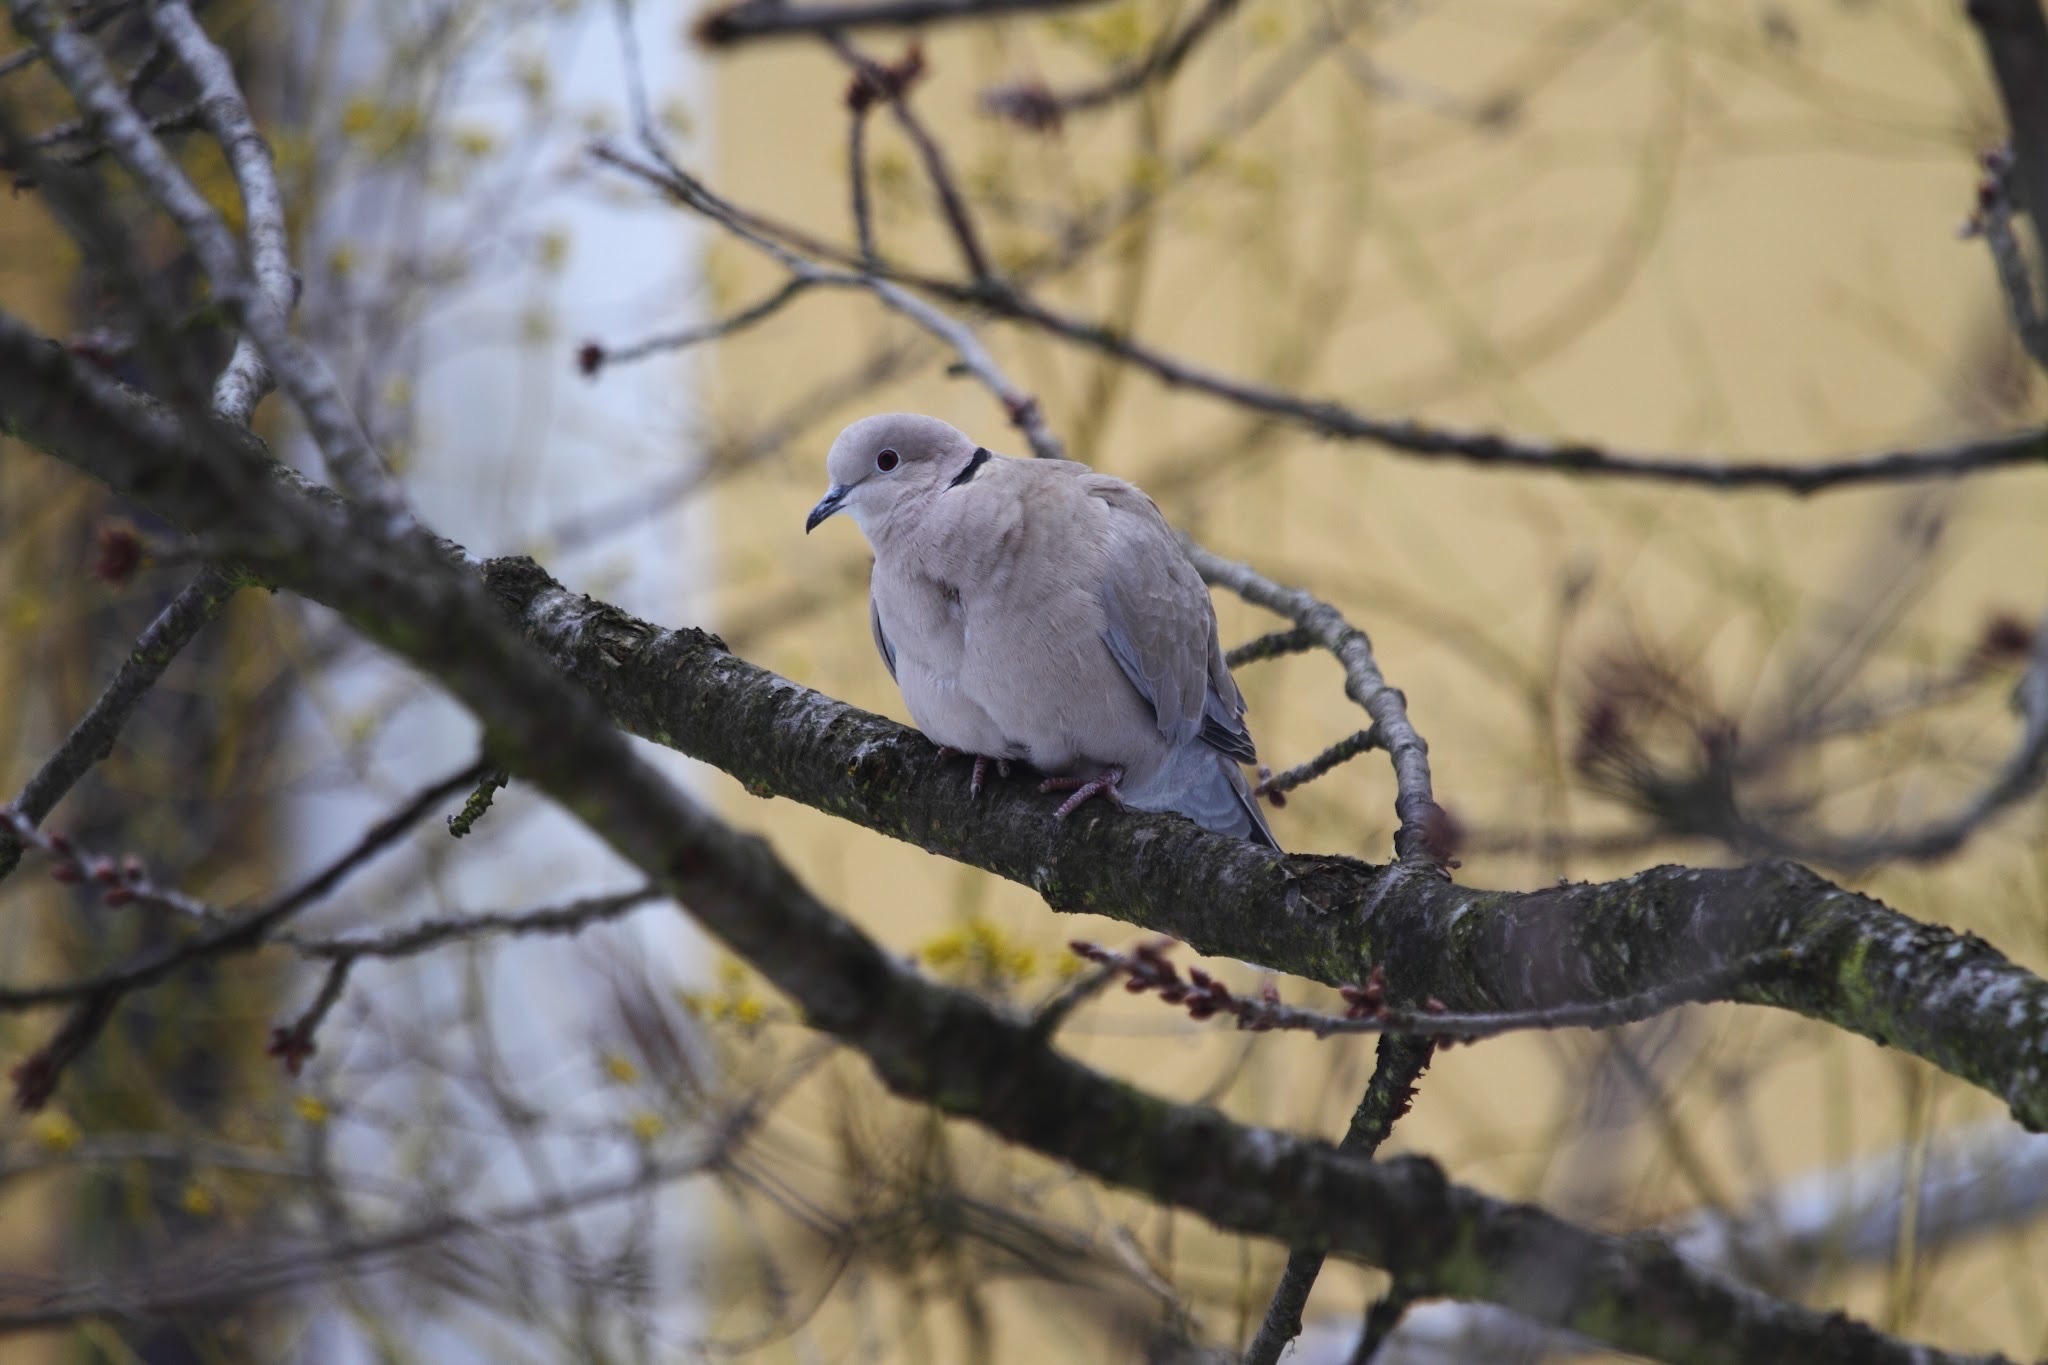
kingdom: Animalia
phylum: Chordata
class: Aves
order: Columbiformes
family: Columbidae
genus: Streptopelia
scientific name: Streptopelia decaocto
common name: Eurasian collared dove
